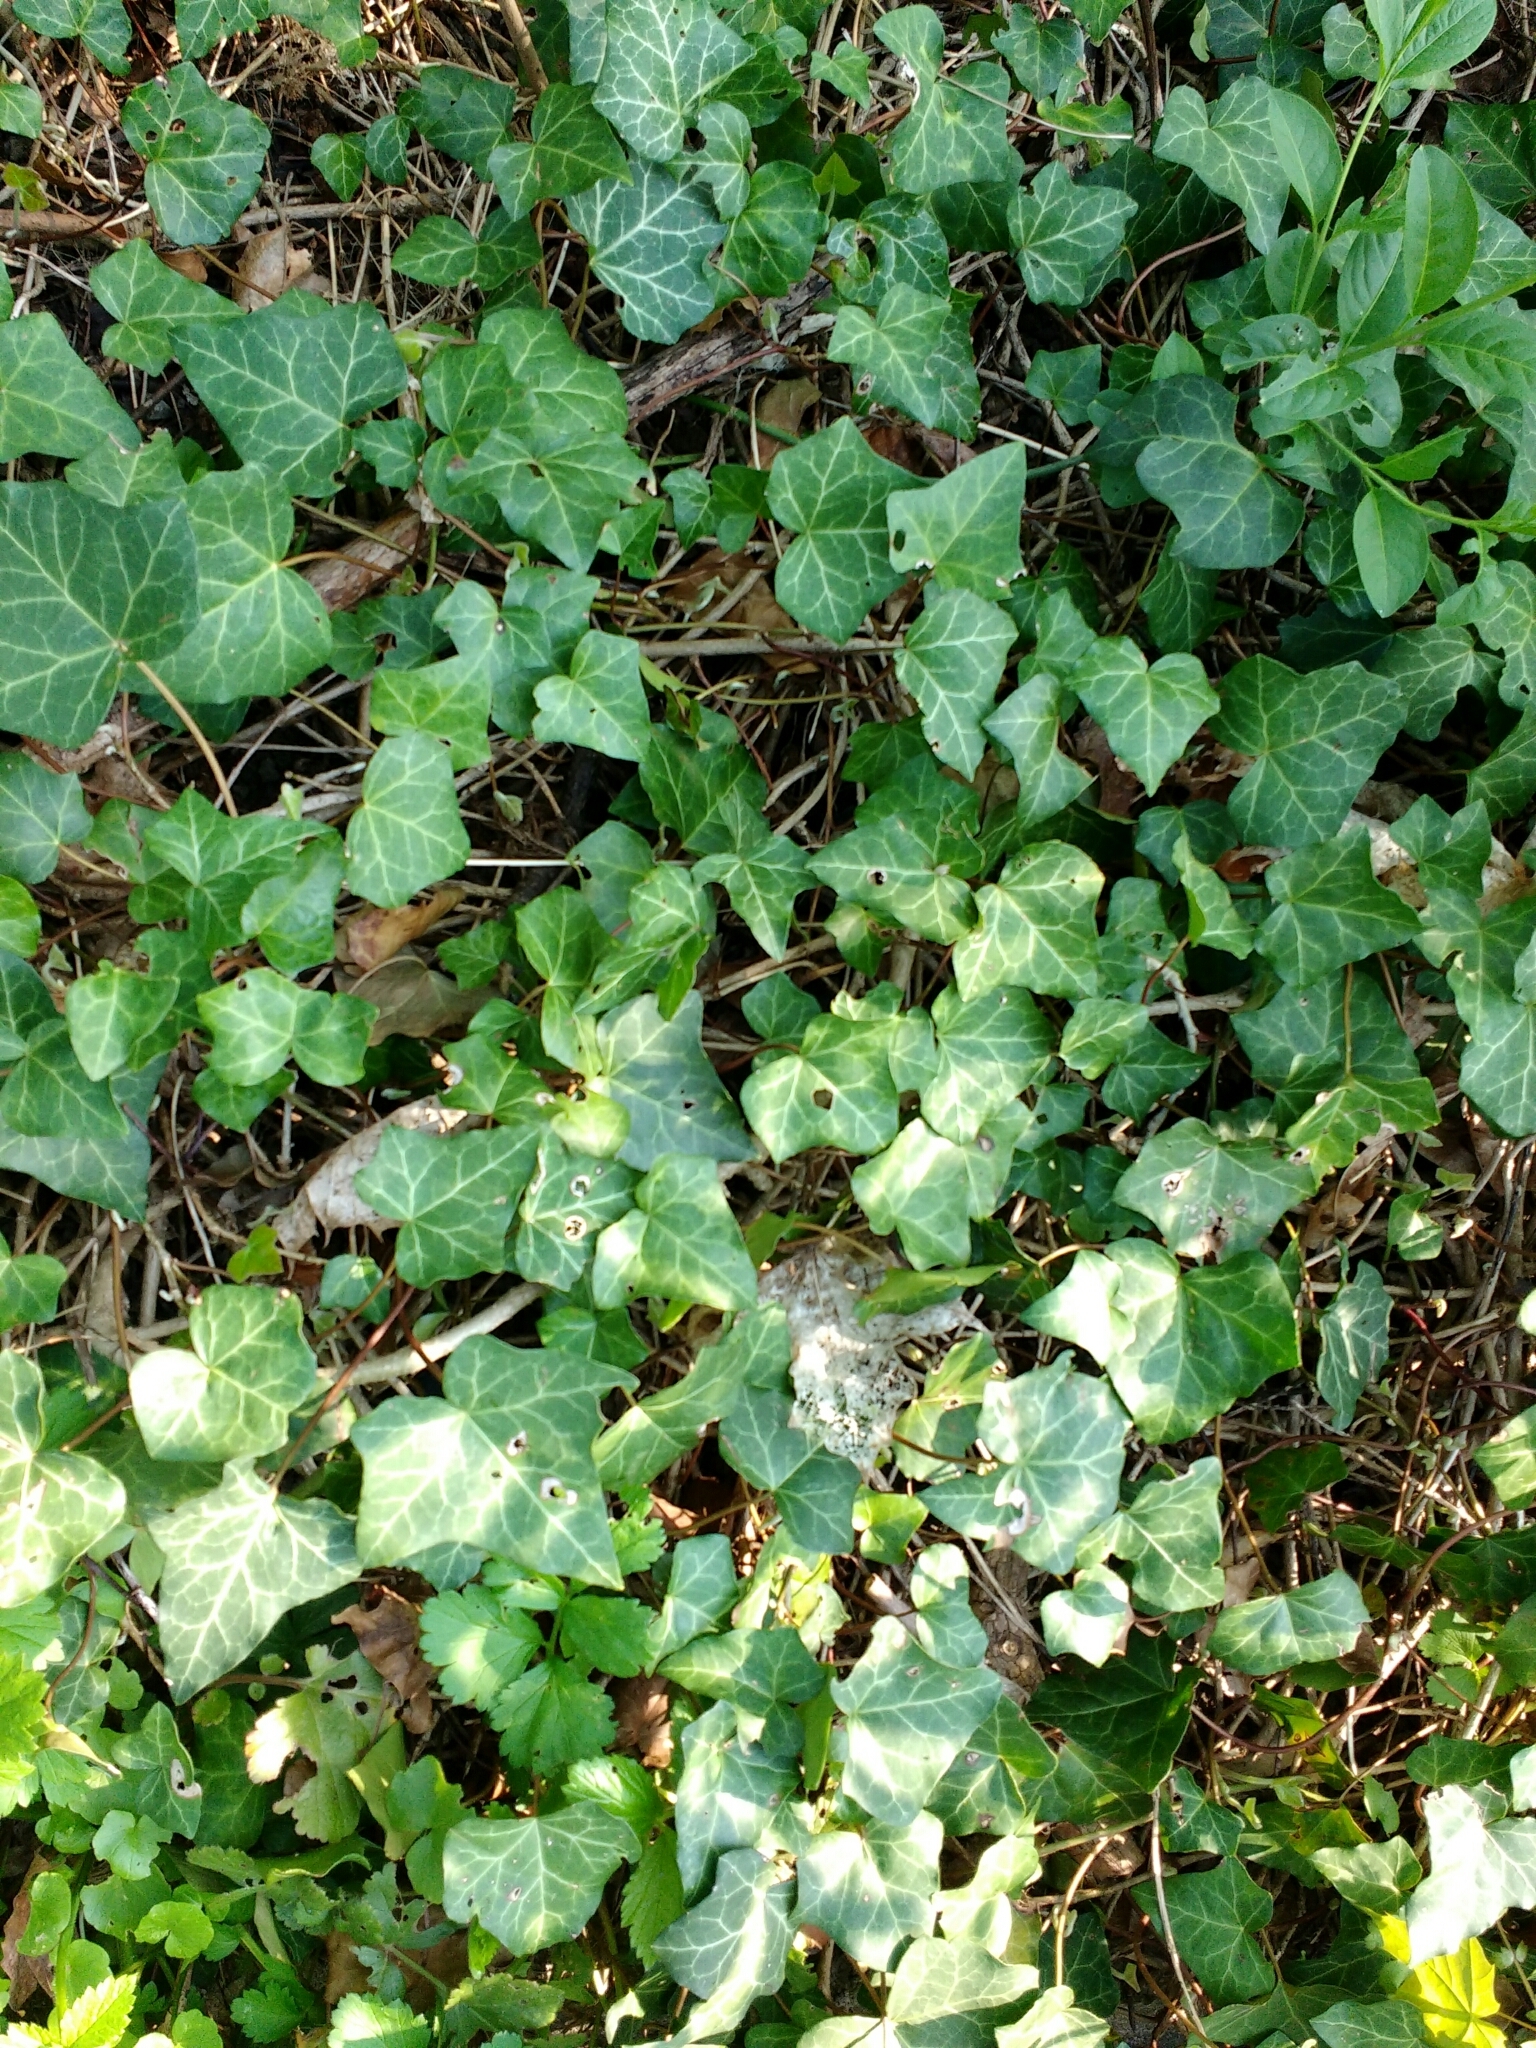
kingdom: Plantae
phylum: Tracheophyta
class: Magnoliopsida
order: Apiales
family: Araliaceae
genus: Hedera
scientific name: Hedera helix
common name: Ivy
